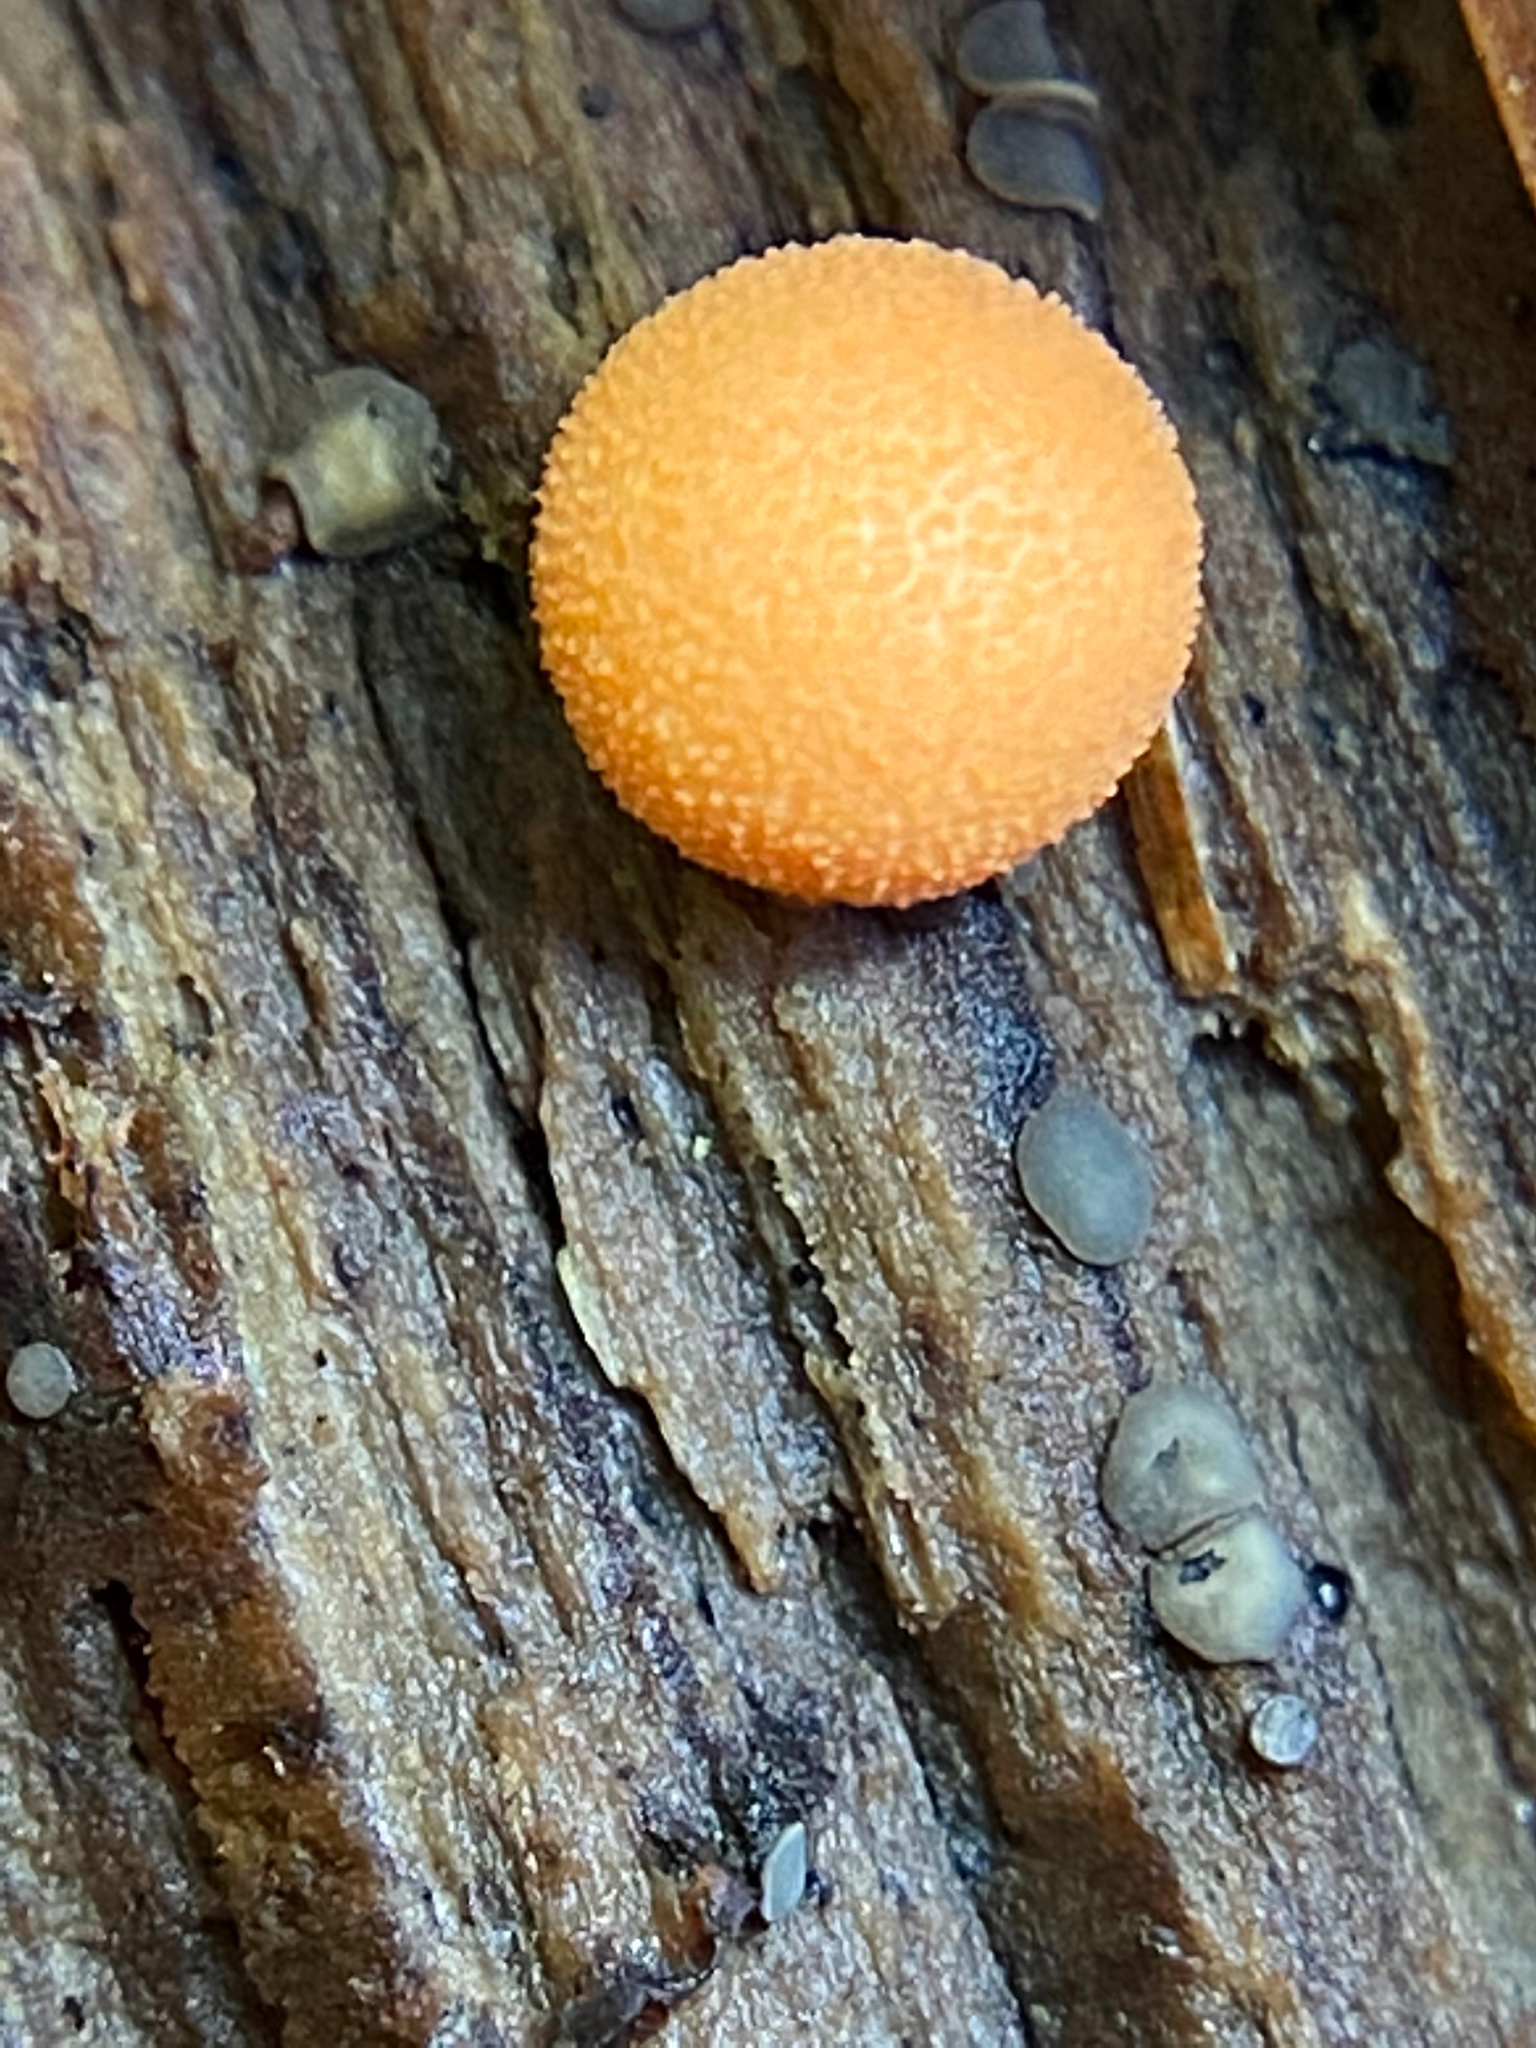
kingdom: Protozoa
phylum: Mycetozoa
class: Myxomycetes
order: Cribrariales
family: Tubiferaceae
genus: Lycogala
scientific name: Lycogala epidendrum
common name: Wolf's milk
